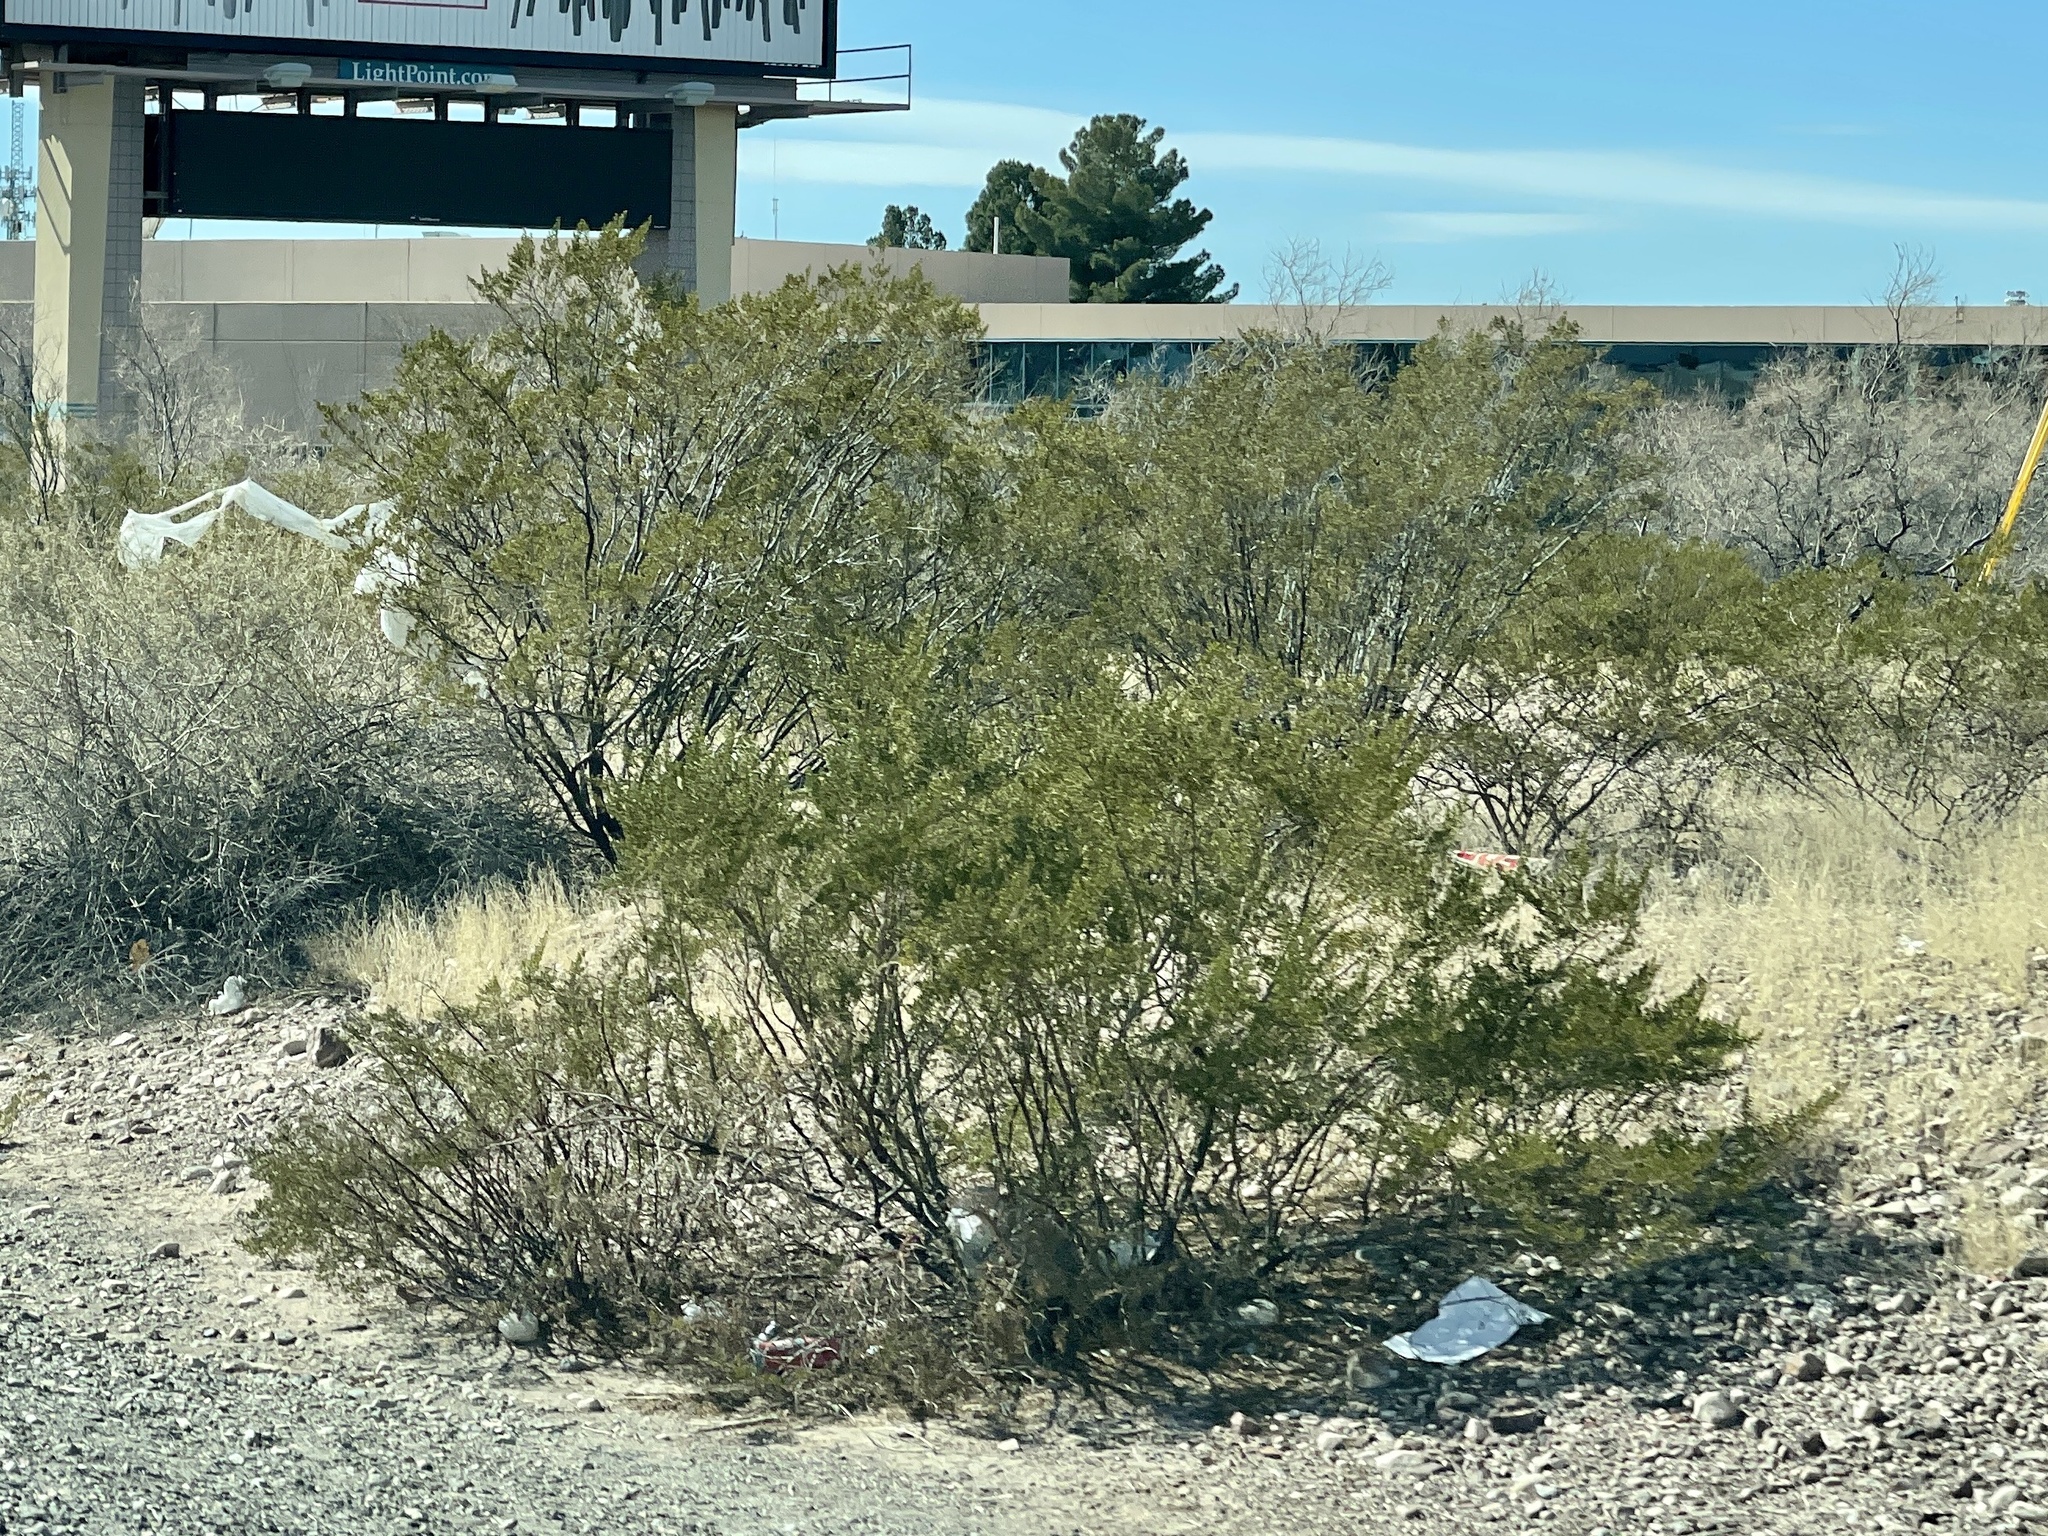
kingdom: Plantae
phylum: Tracheophyta
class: Magnoliopsida
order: Zygophyllales
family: Zygophyllaceae
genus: Larrea
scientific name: Larrea tridentata
